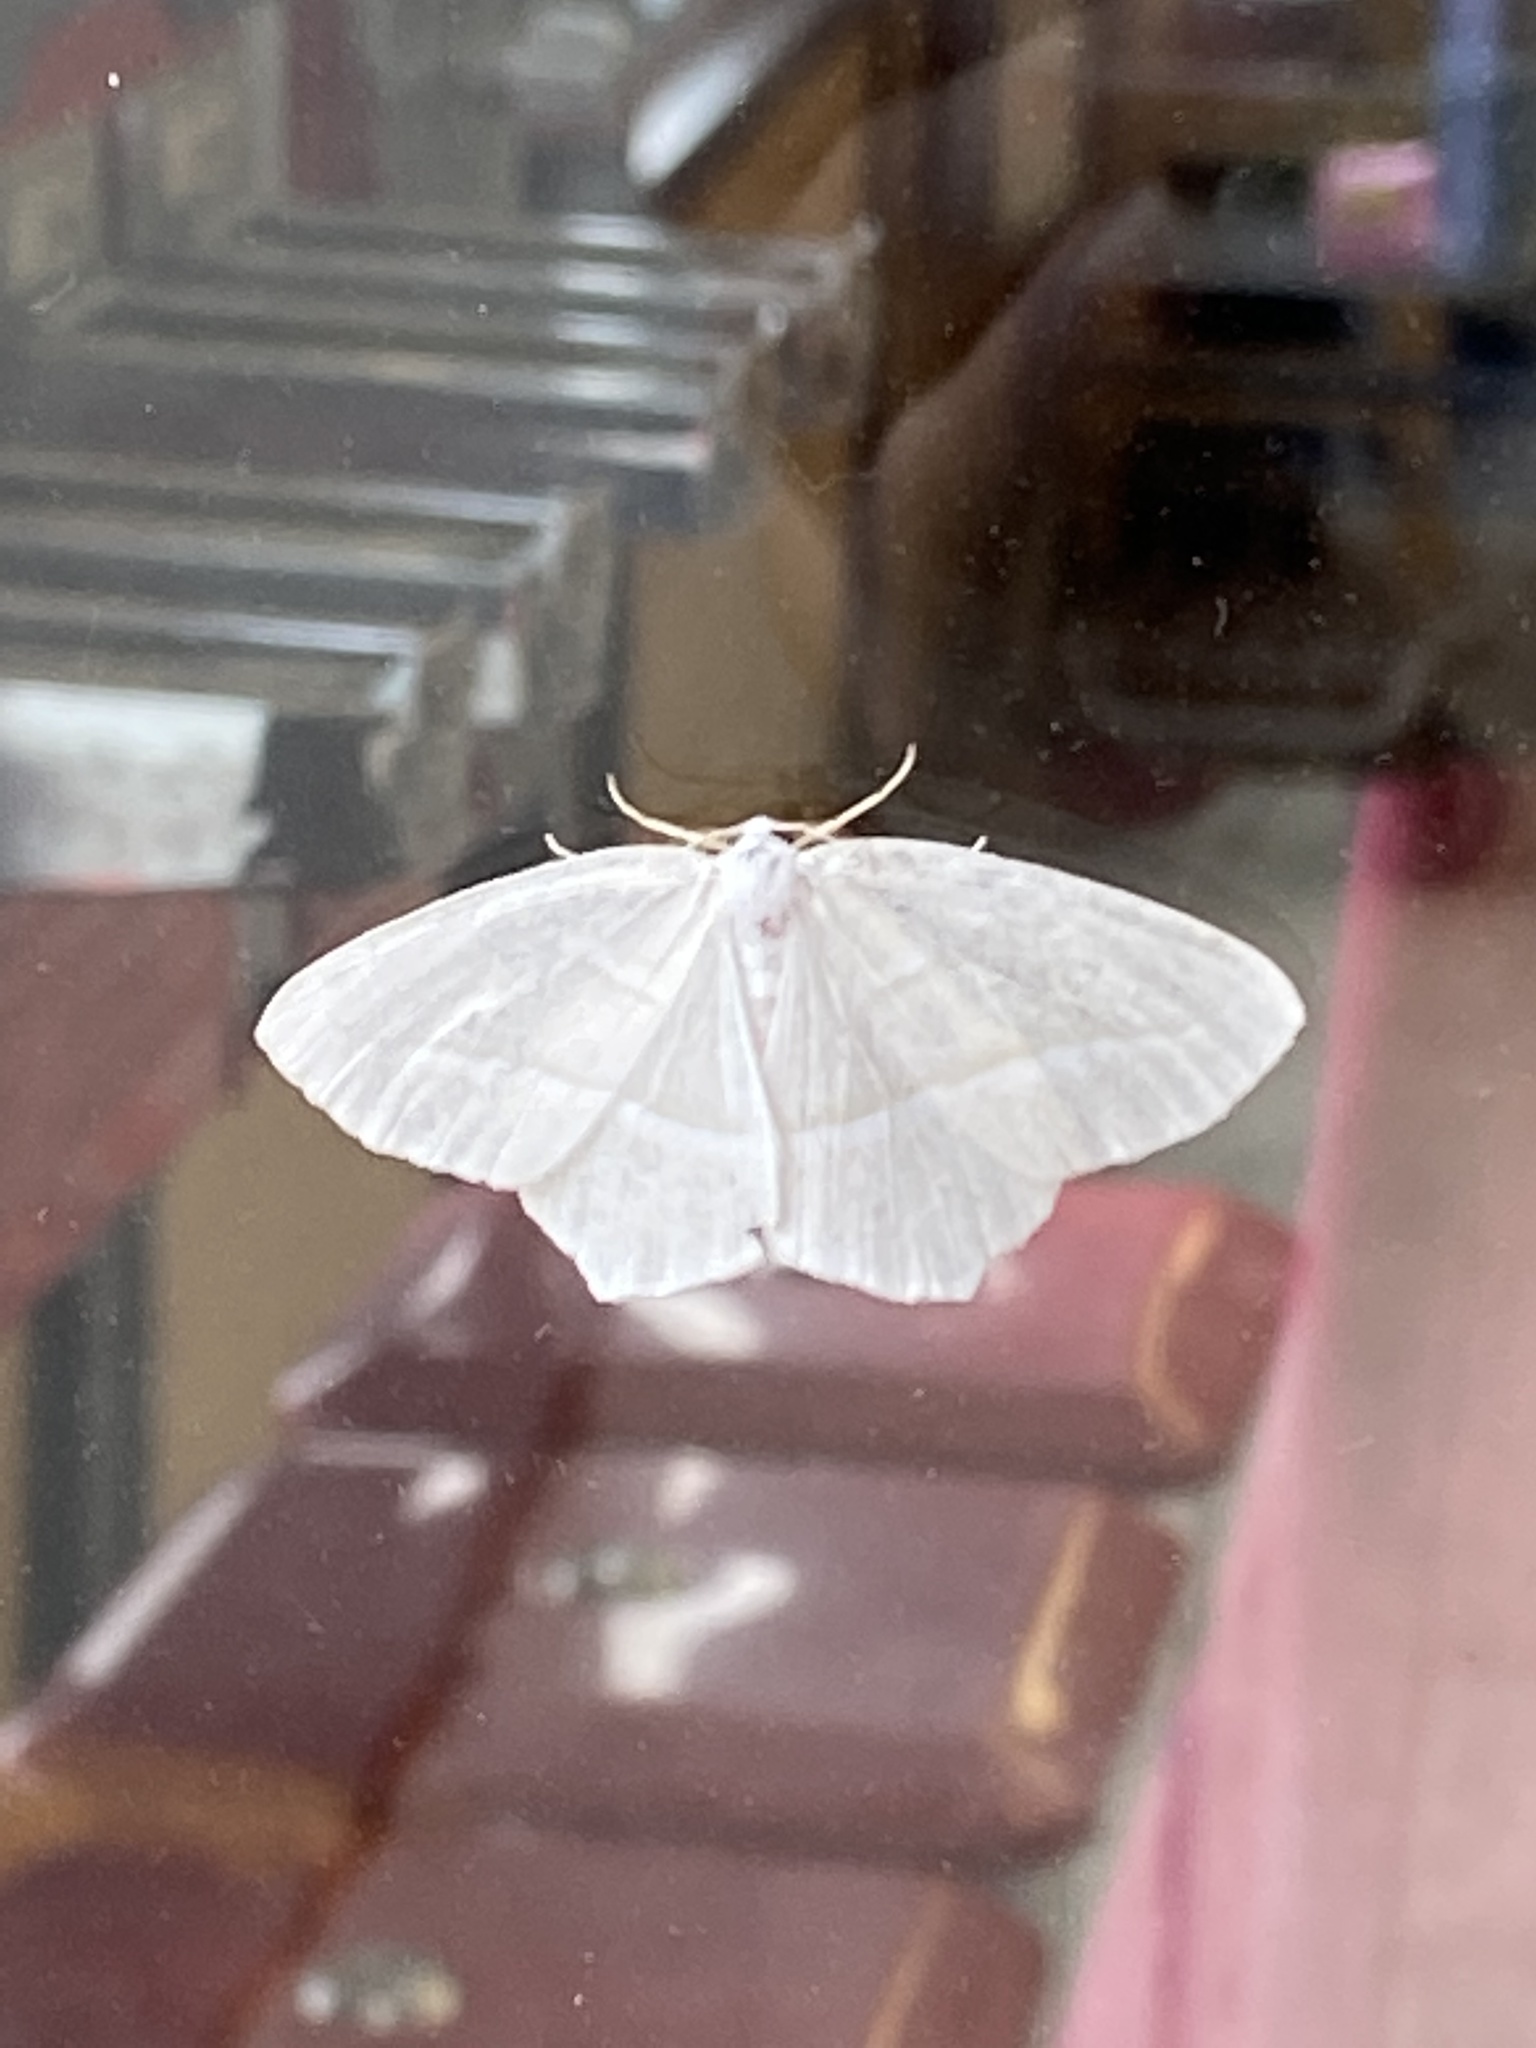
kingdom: Animalia
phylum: Arthropoda
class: Insecta
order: Lepidoptera
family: Geometridae
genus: Campaea
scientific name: Campaea perlata
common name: Fringed looper
